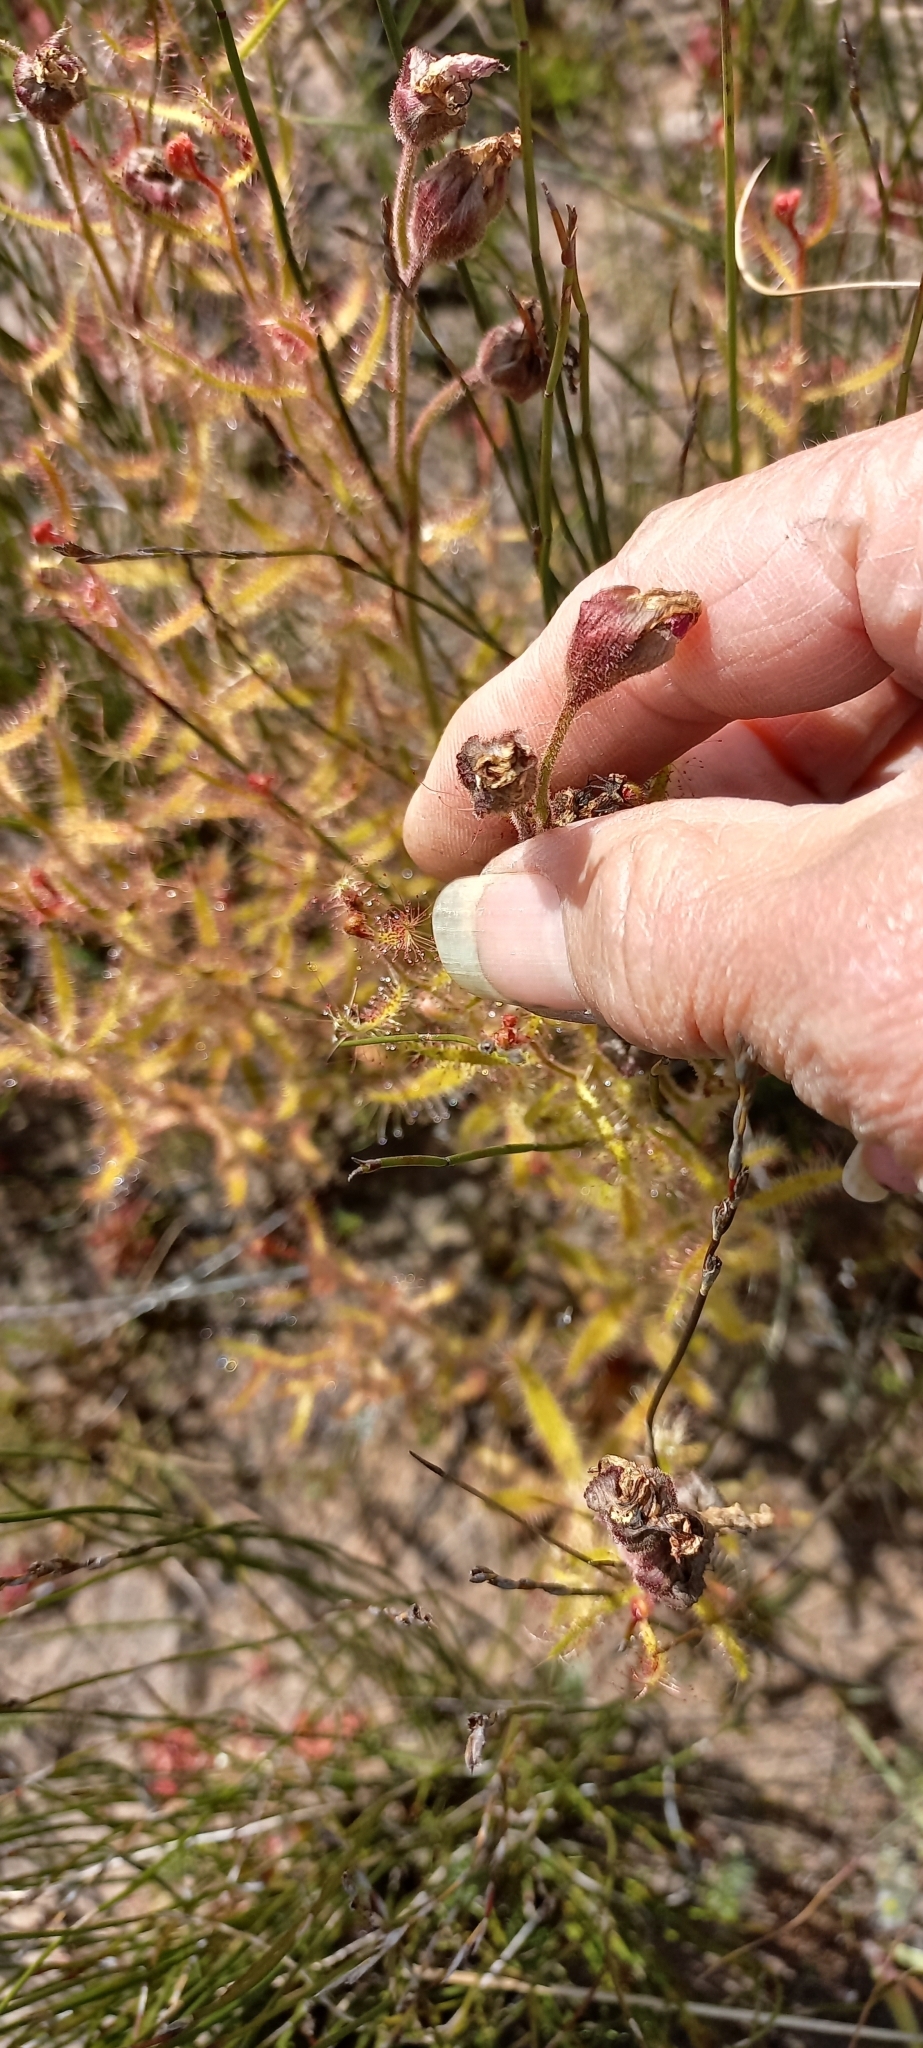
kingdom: Plantae
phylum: Tracheophyta
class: Magnoliopsida
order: Caryophyllales
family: Droseraceae
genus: Drosera
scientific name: Drosera cistiflora
